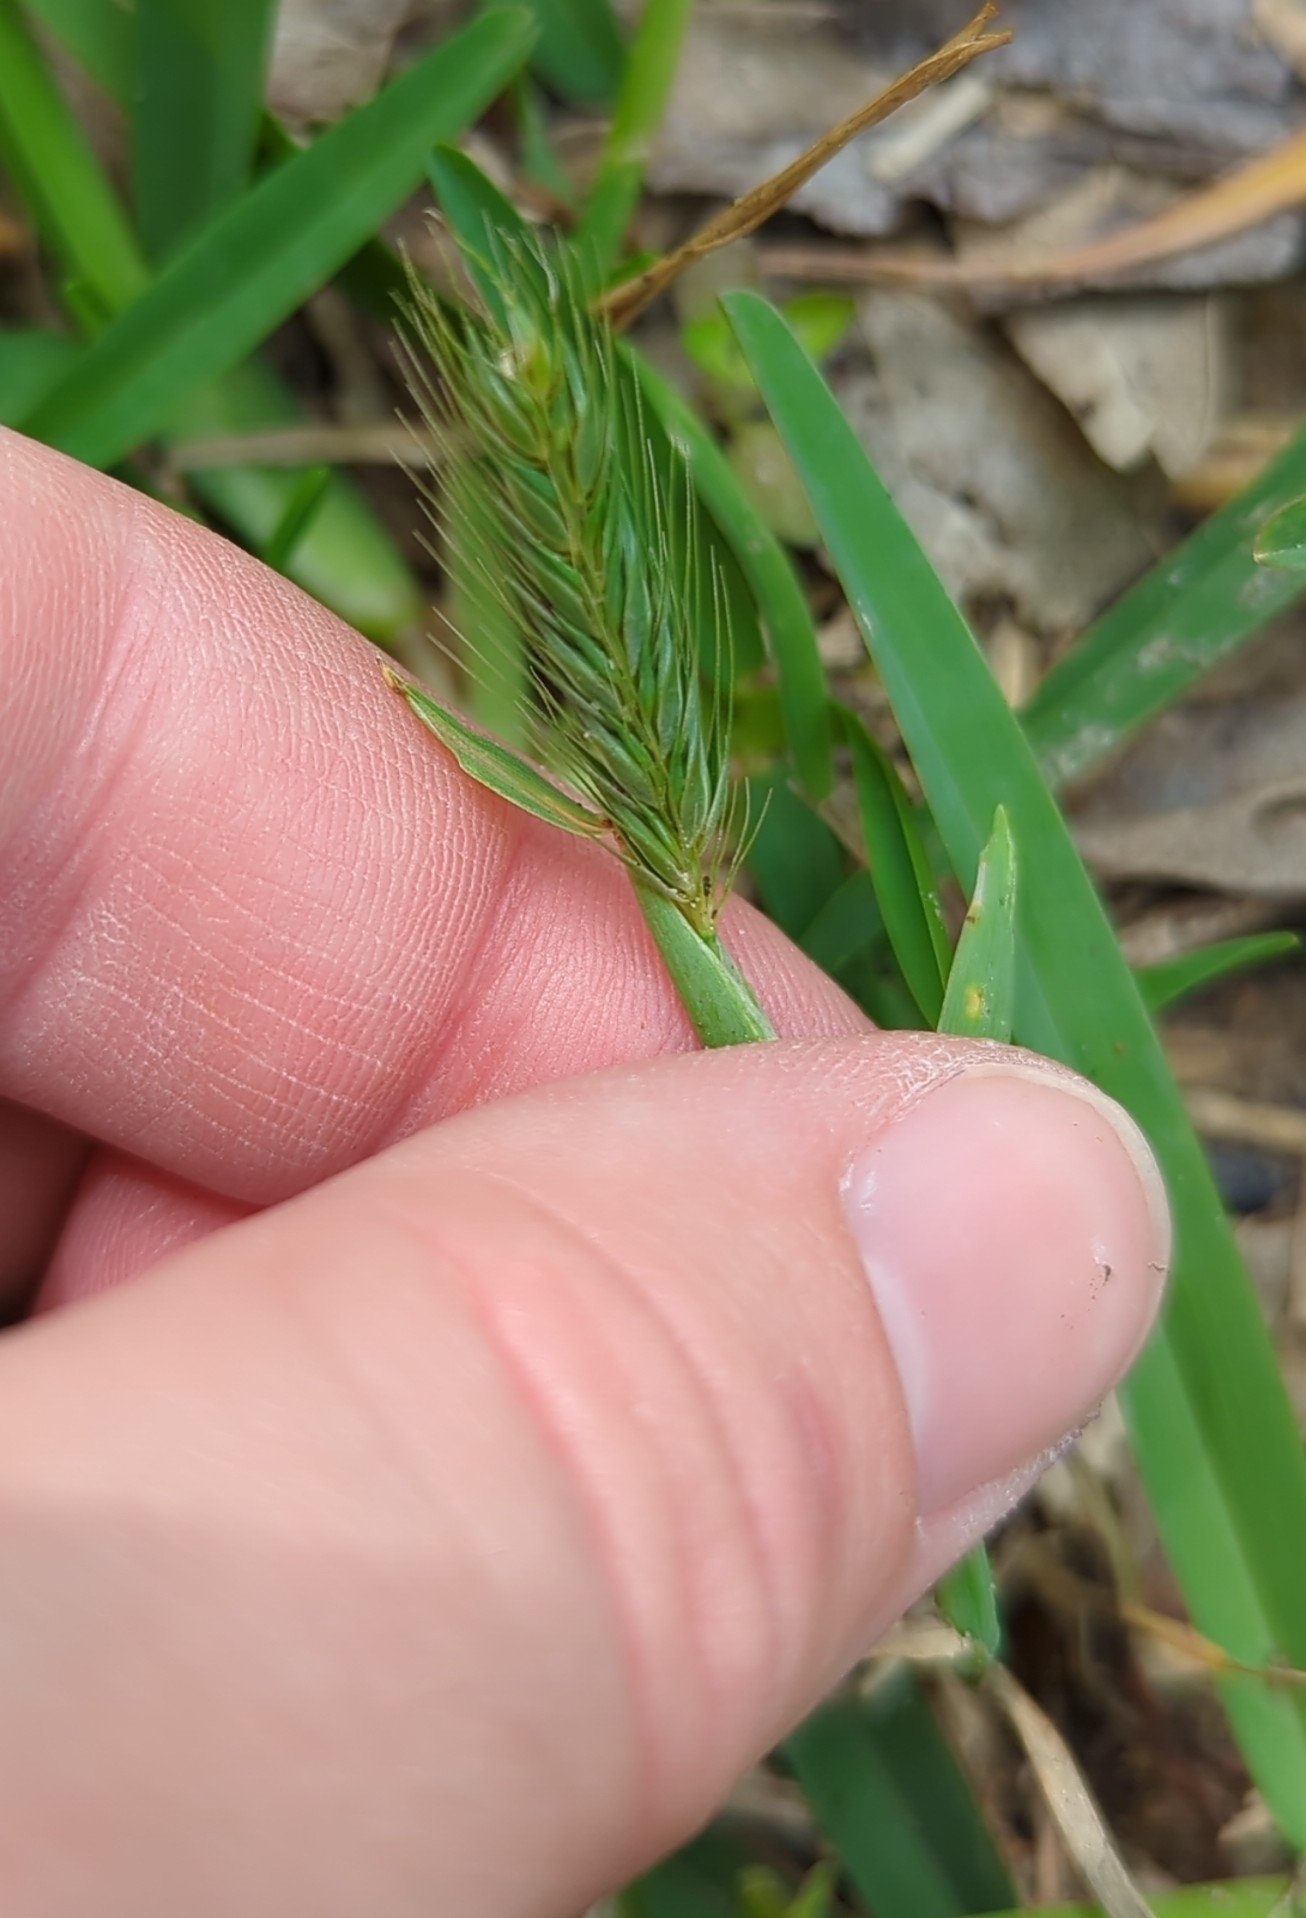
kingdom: Plantae
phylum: Tracheophyta
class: Liliopsida
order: Poales
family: Poaceae
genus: Hordeum
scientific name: Hordeum pusillum
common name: Little barley
